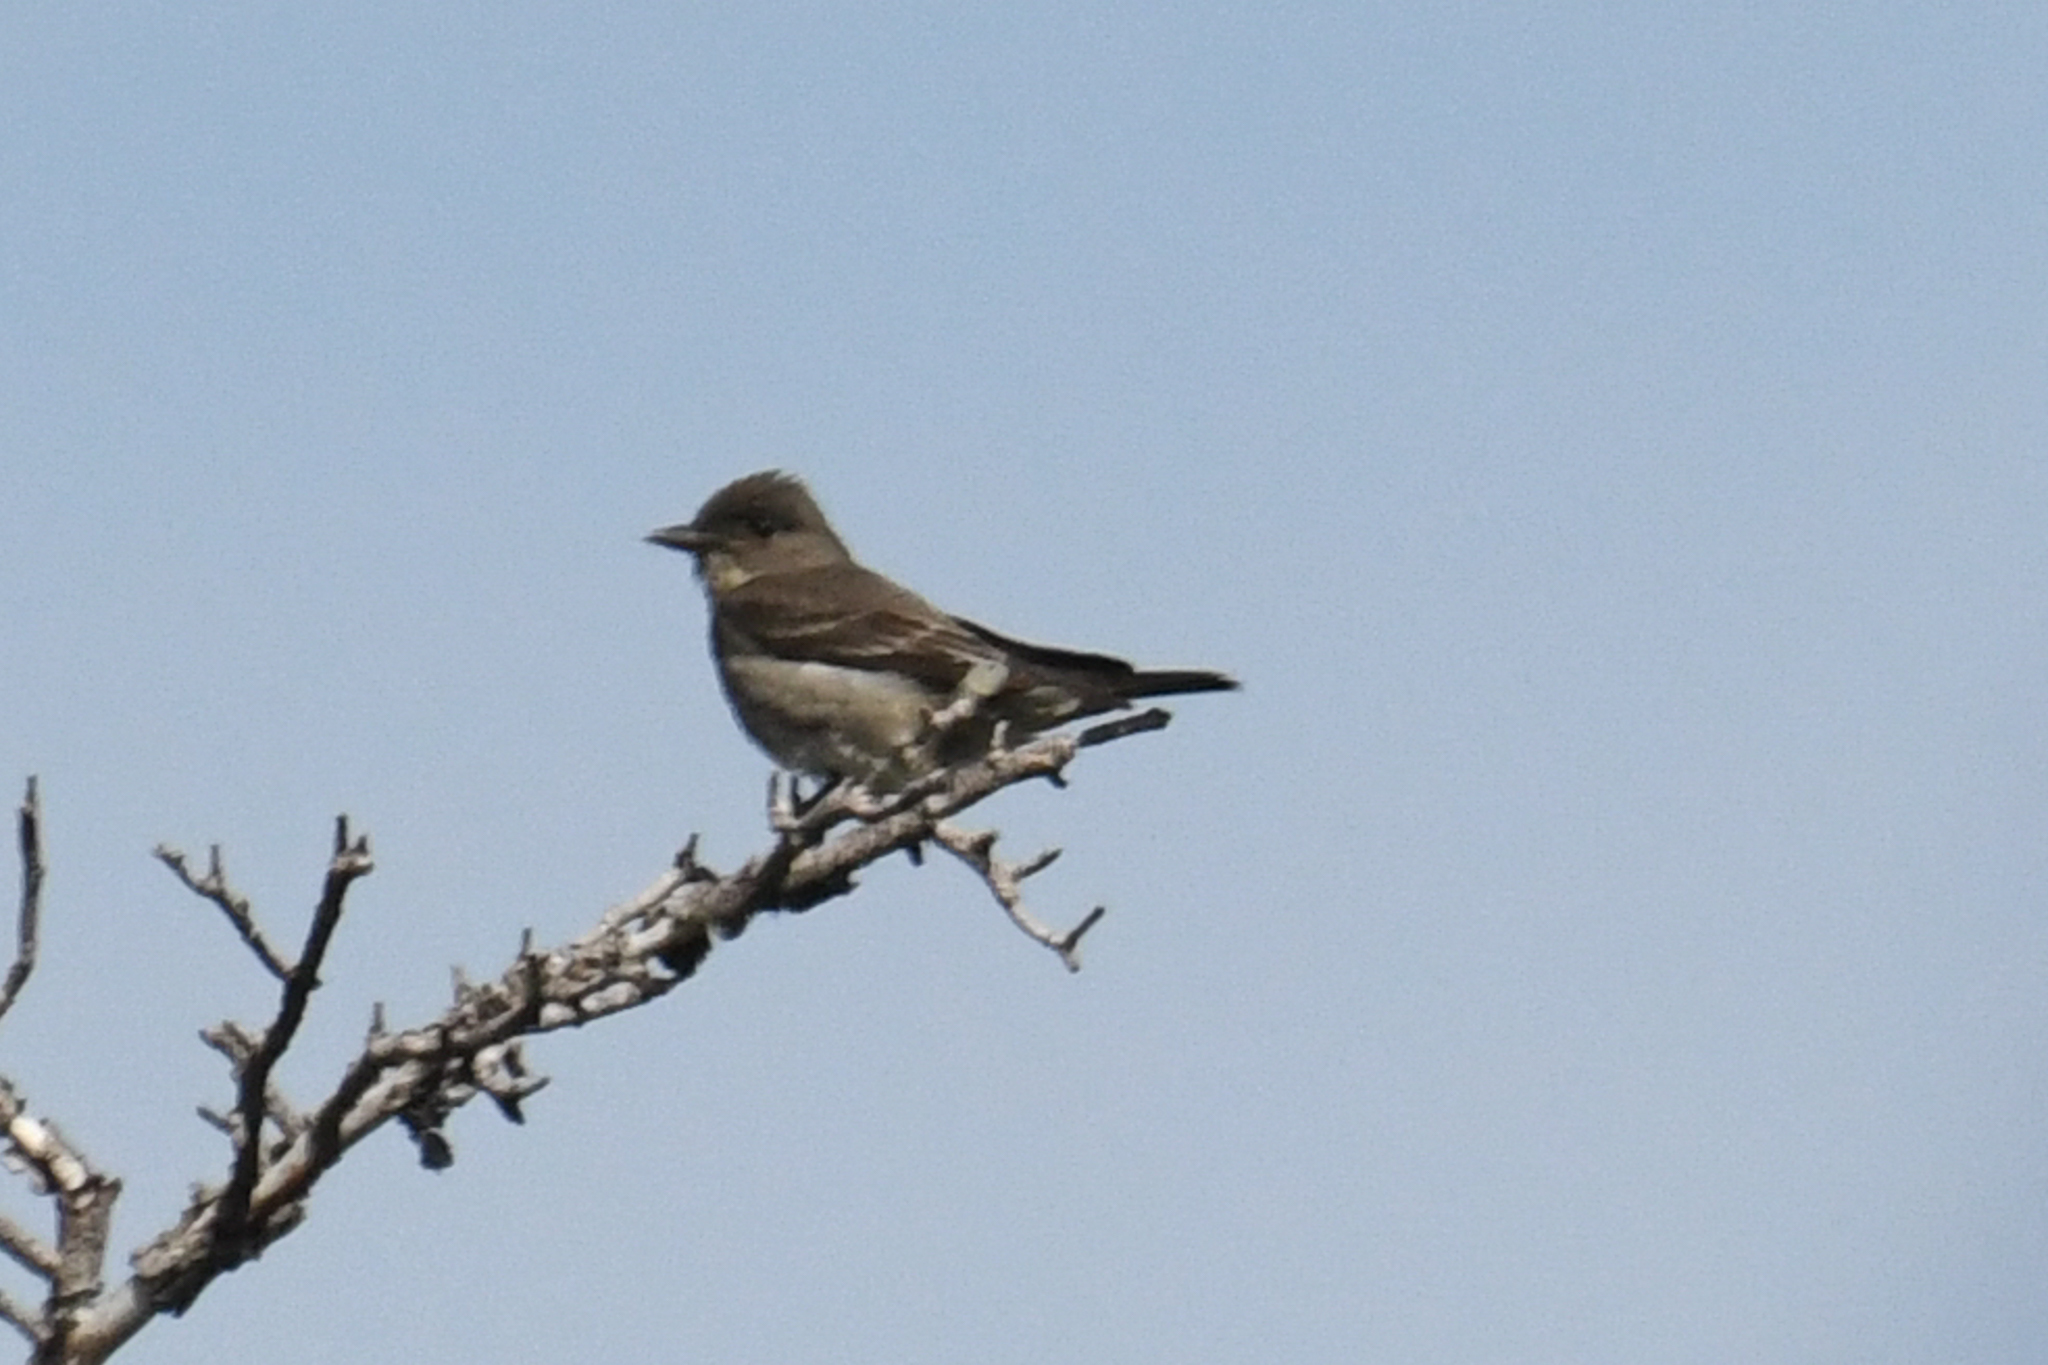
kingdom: Animalia
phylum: Chordata
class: Aves
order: Passeriformes
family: Tyrannidae
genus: Contopus
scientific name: Contopus cooperi
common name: Olive-sided flycatcher
